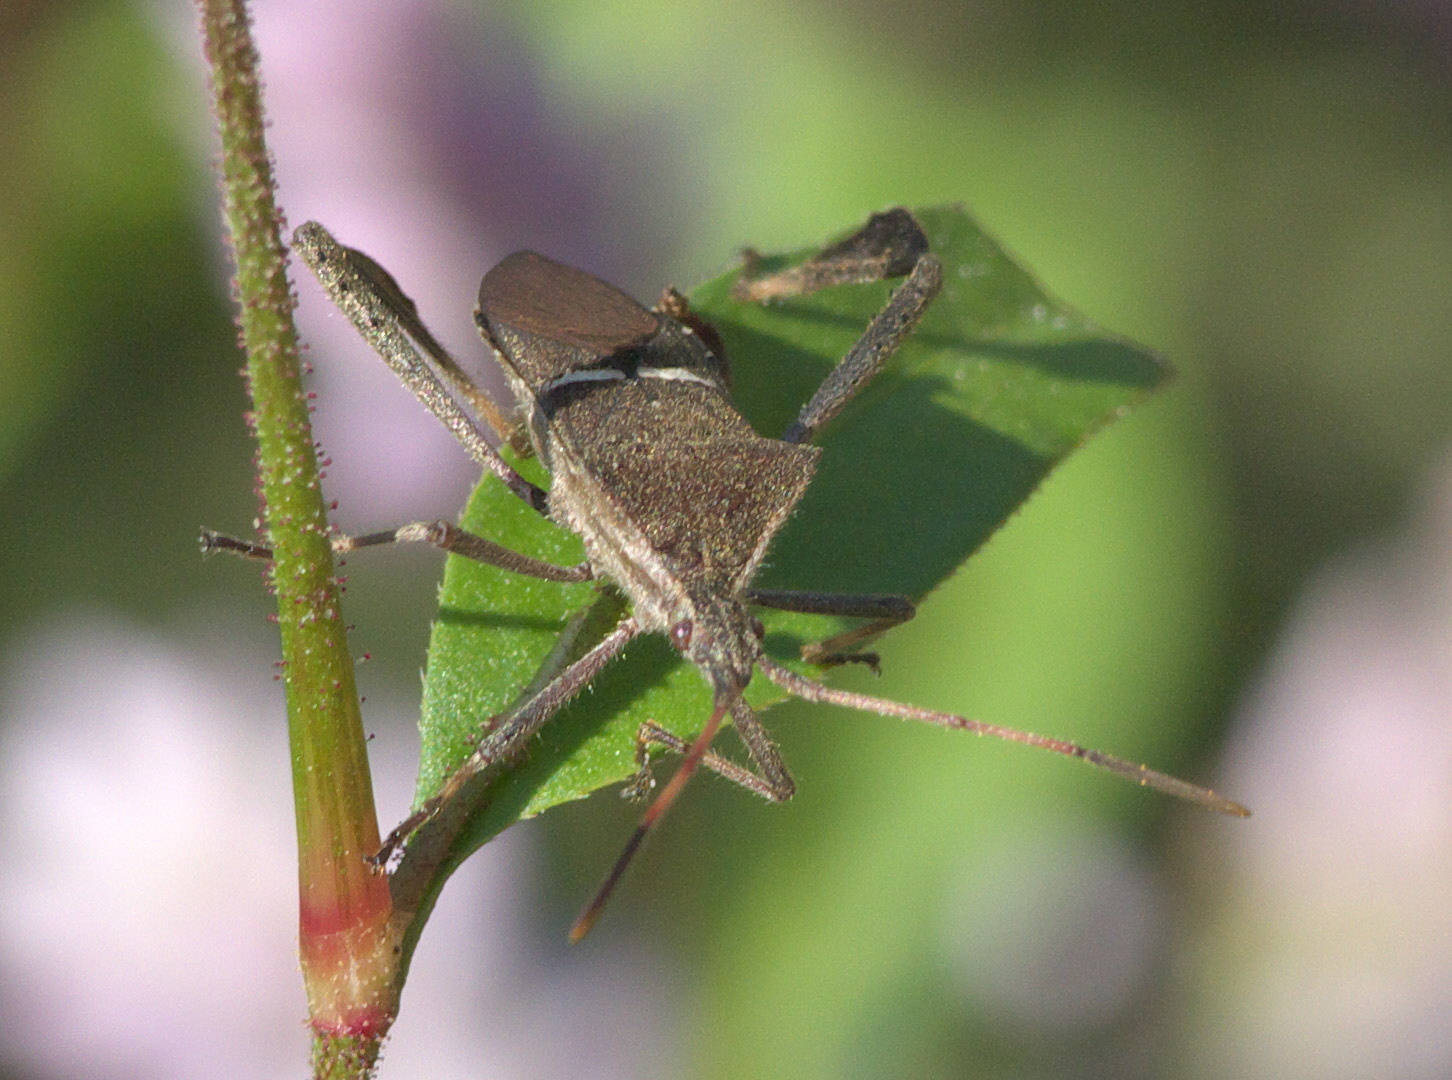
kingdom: Animalia
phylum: Arthropoda
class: Insecta
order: Hemiptera
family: Coreidae
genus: Leptoglossus
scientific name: Leptoglossus phyllopus
